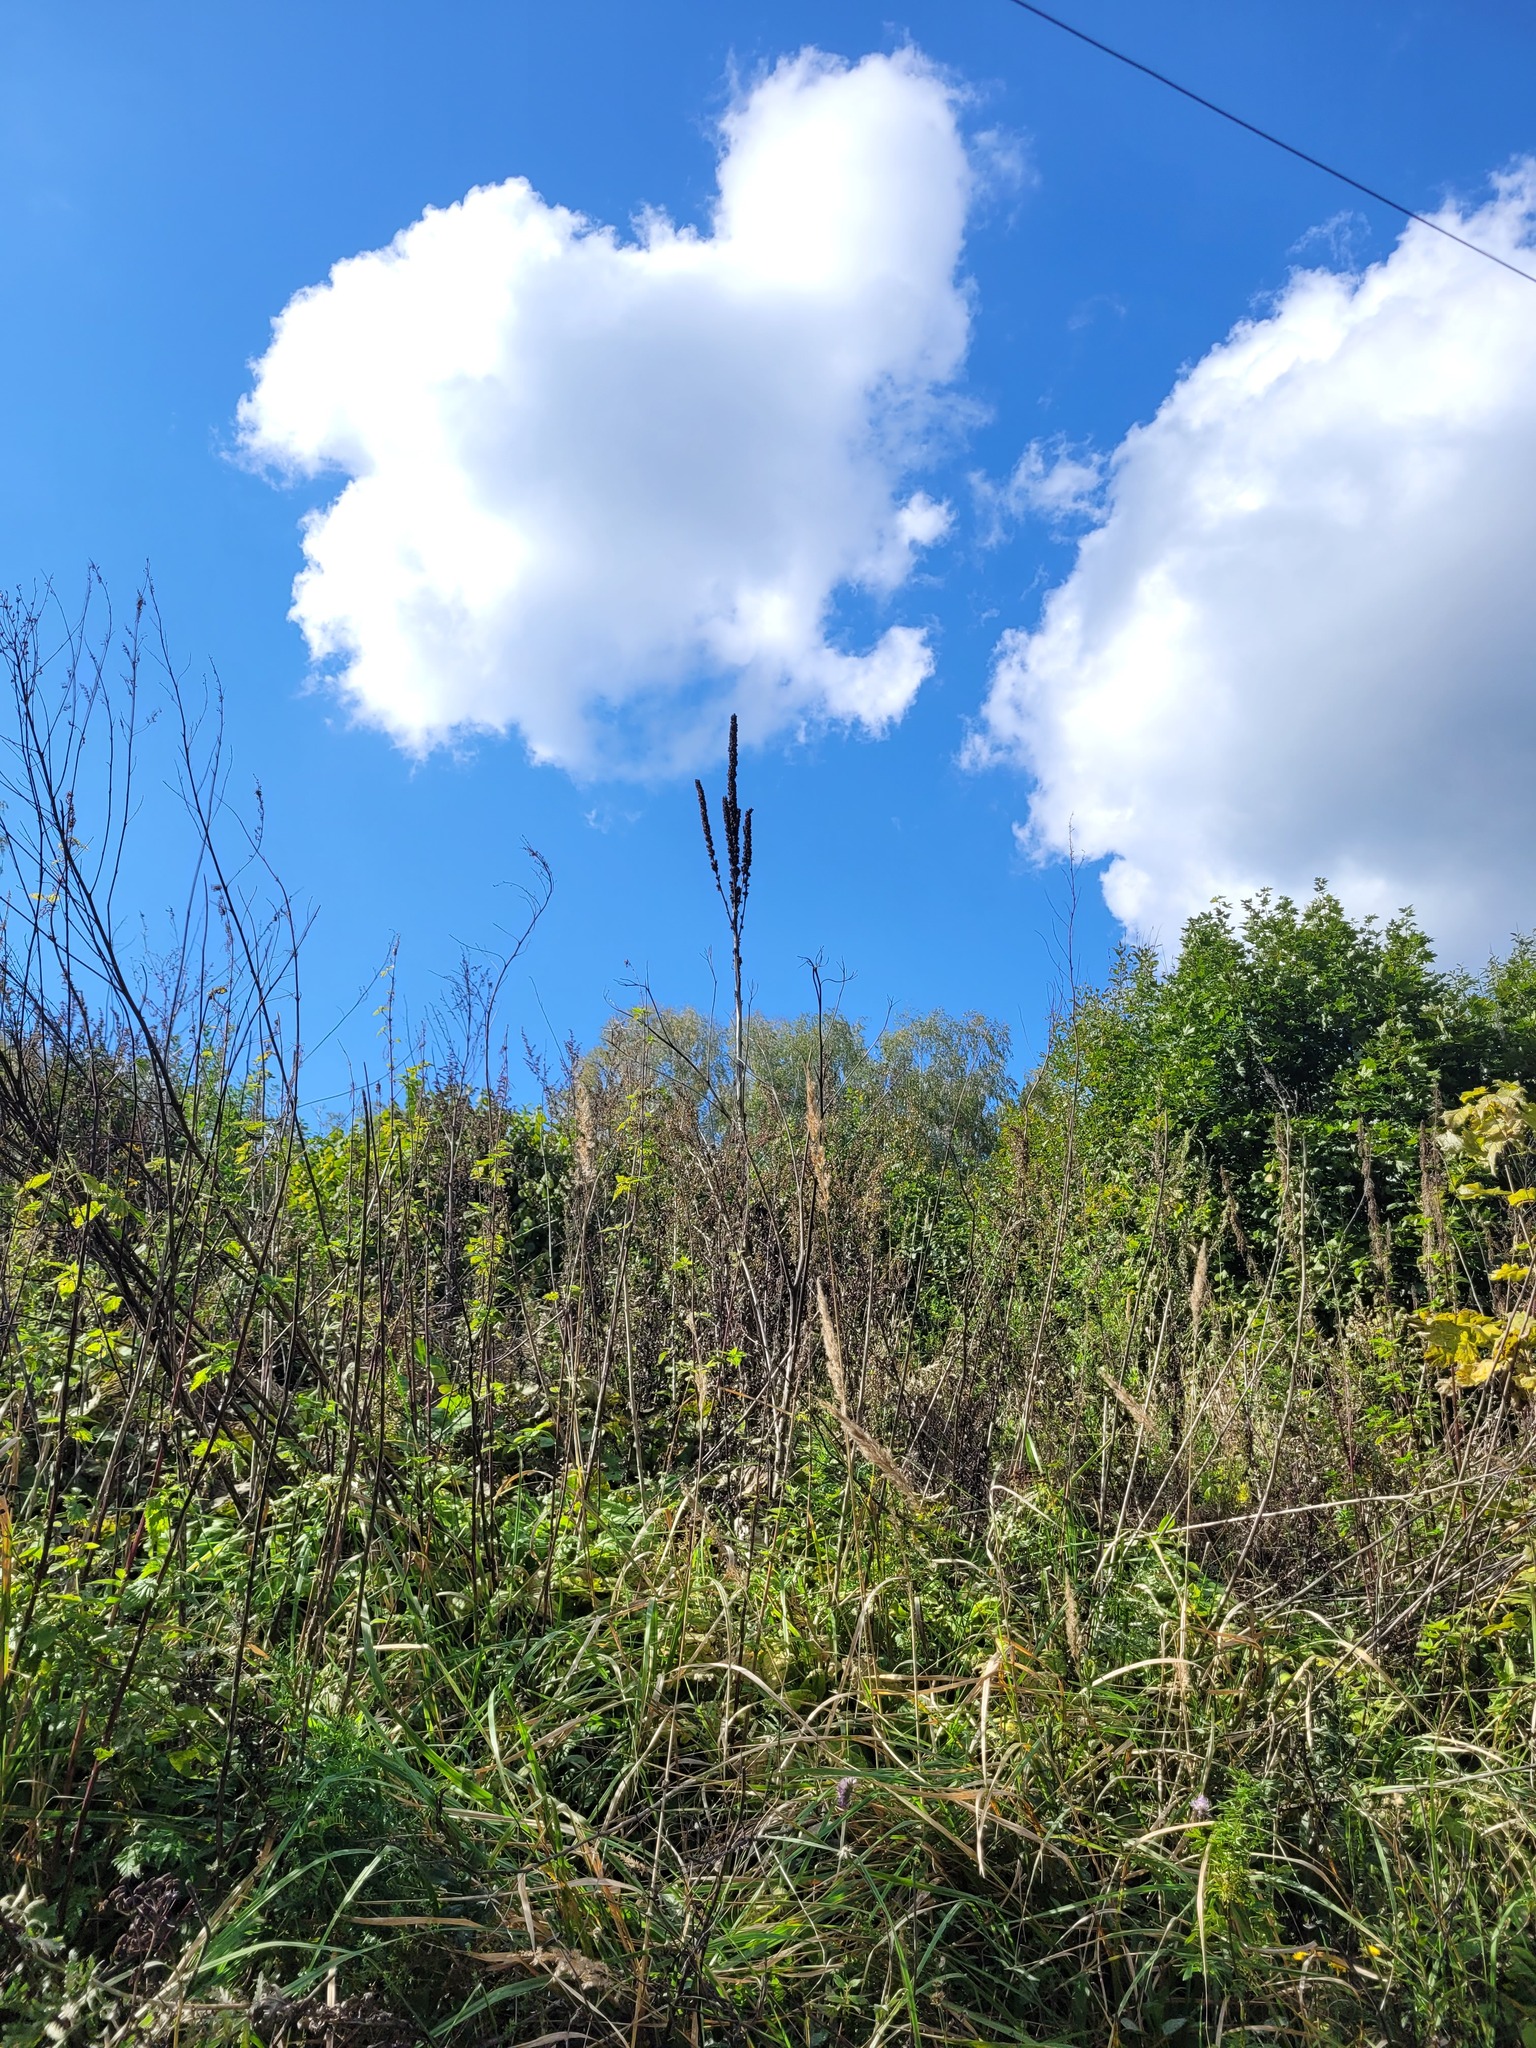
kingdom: Plantae
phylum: Tracheophyta
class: Magnoliopsida
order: Lamiales
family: Scrophulariaceae
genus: Verbascum
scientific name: Verbascum thapsus
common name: Common mullein
